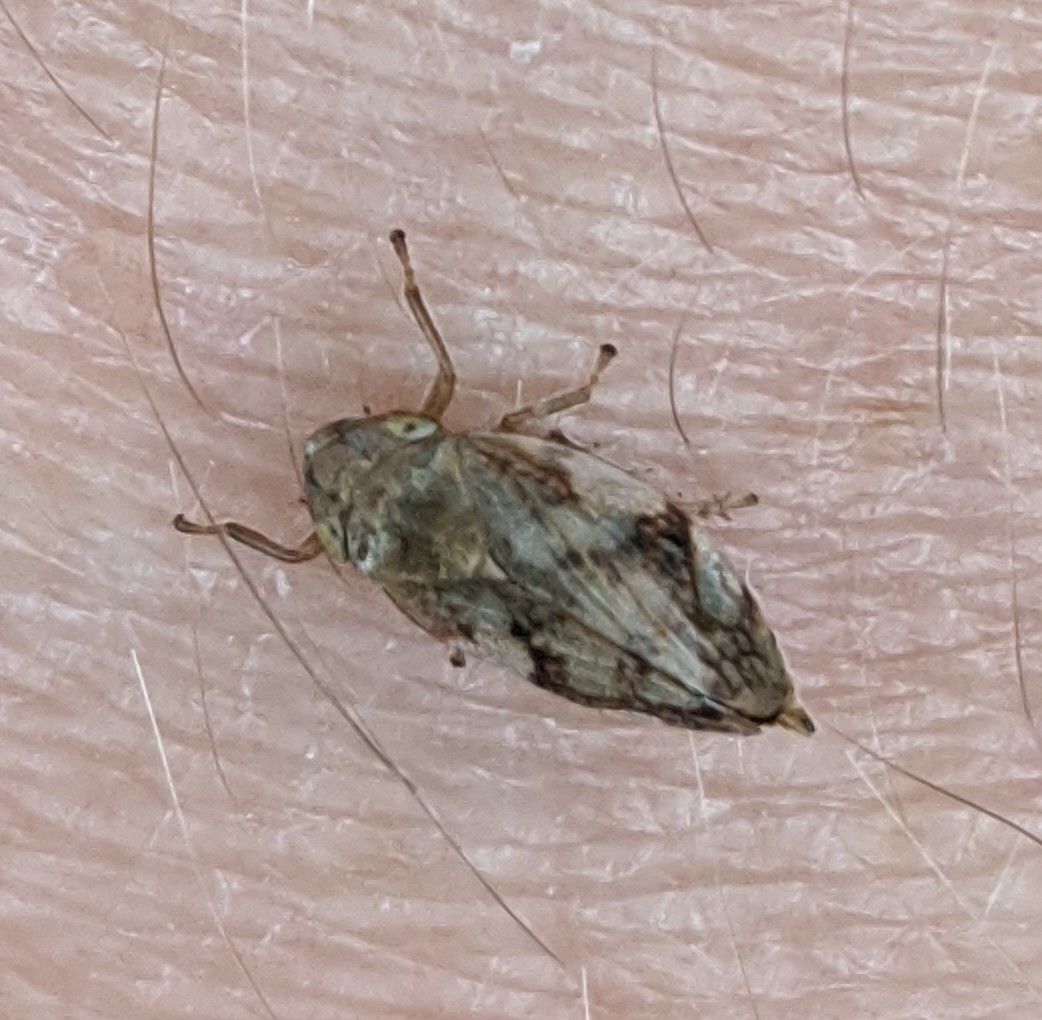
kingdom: Animalia
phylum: Arthropoda
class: Insecta
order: Hemiptera
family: Aphrophoridae
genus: Philaenus
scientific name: Philaenus spumarius
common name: Meadow spittlebug
